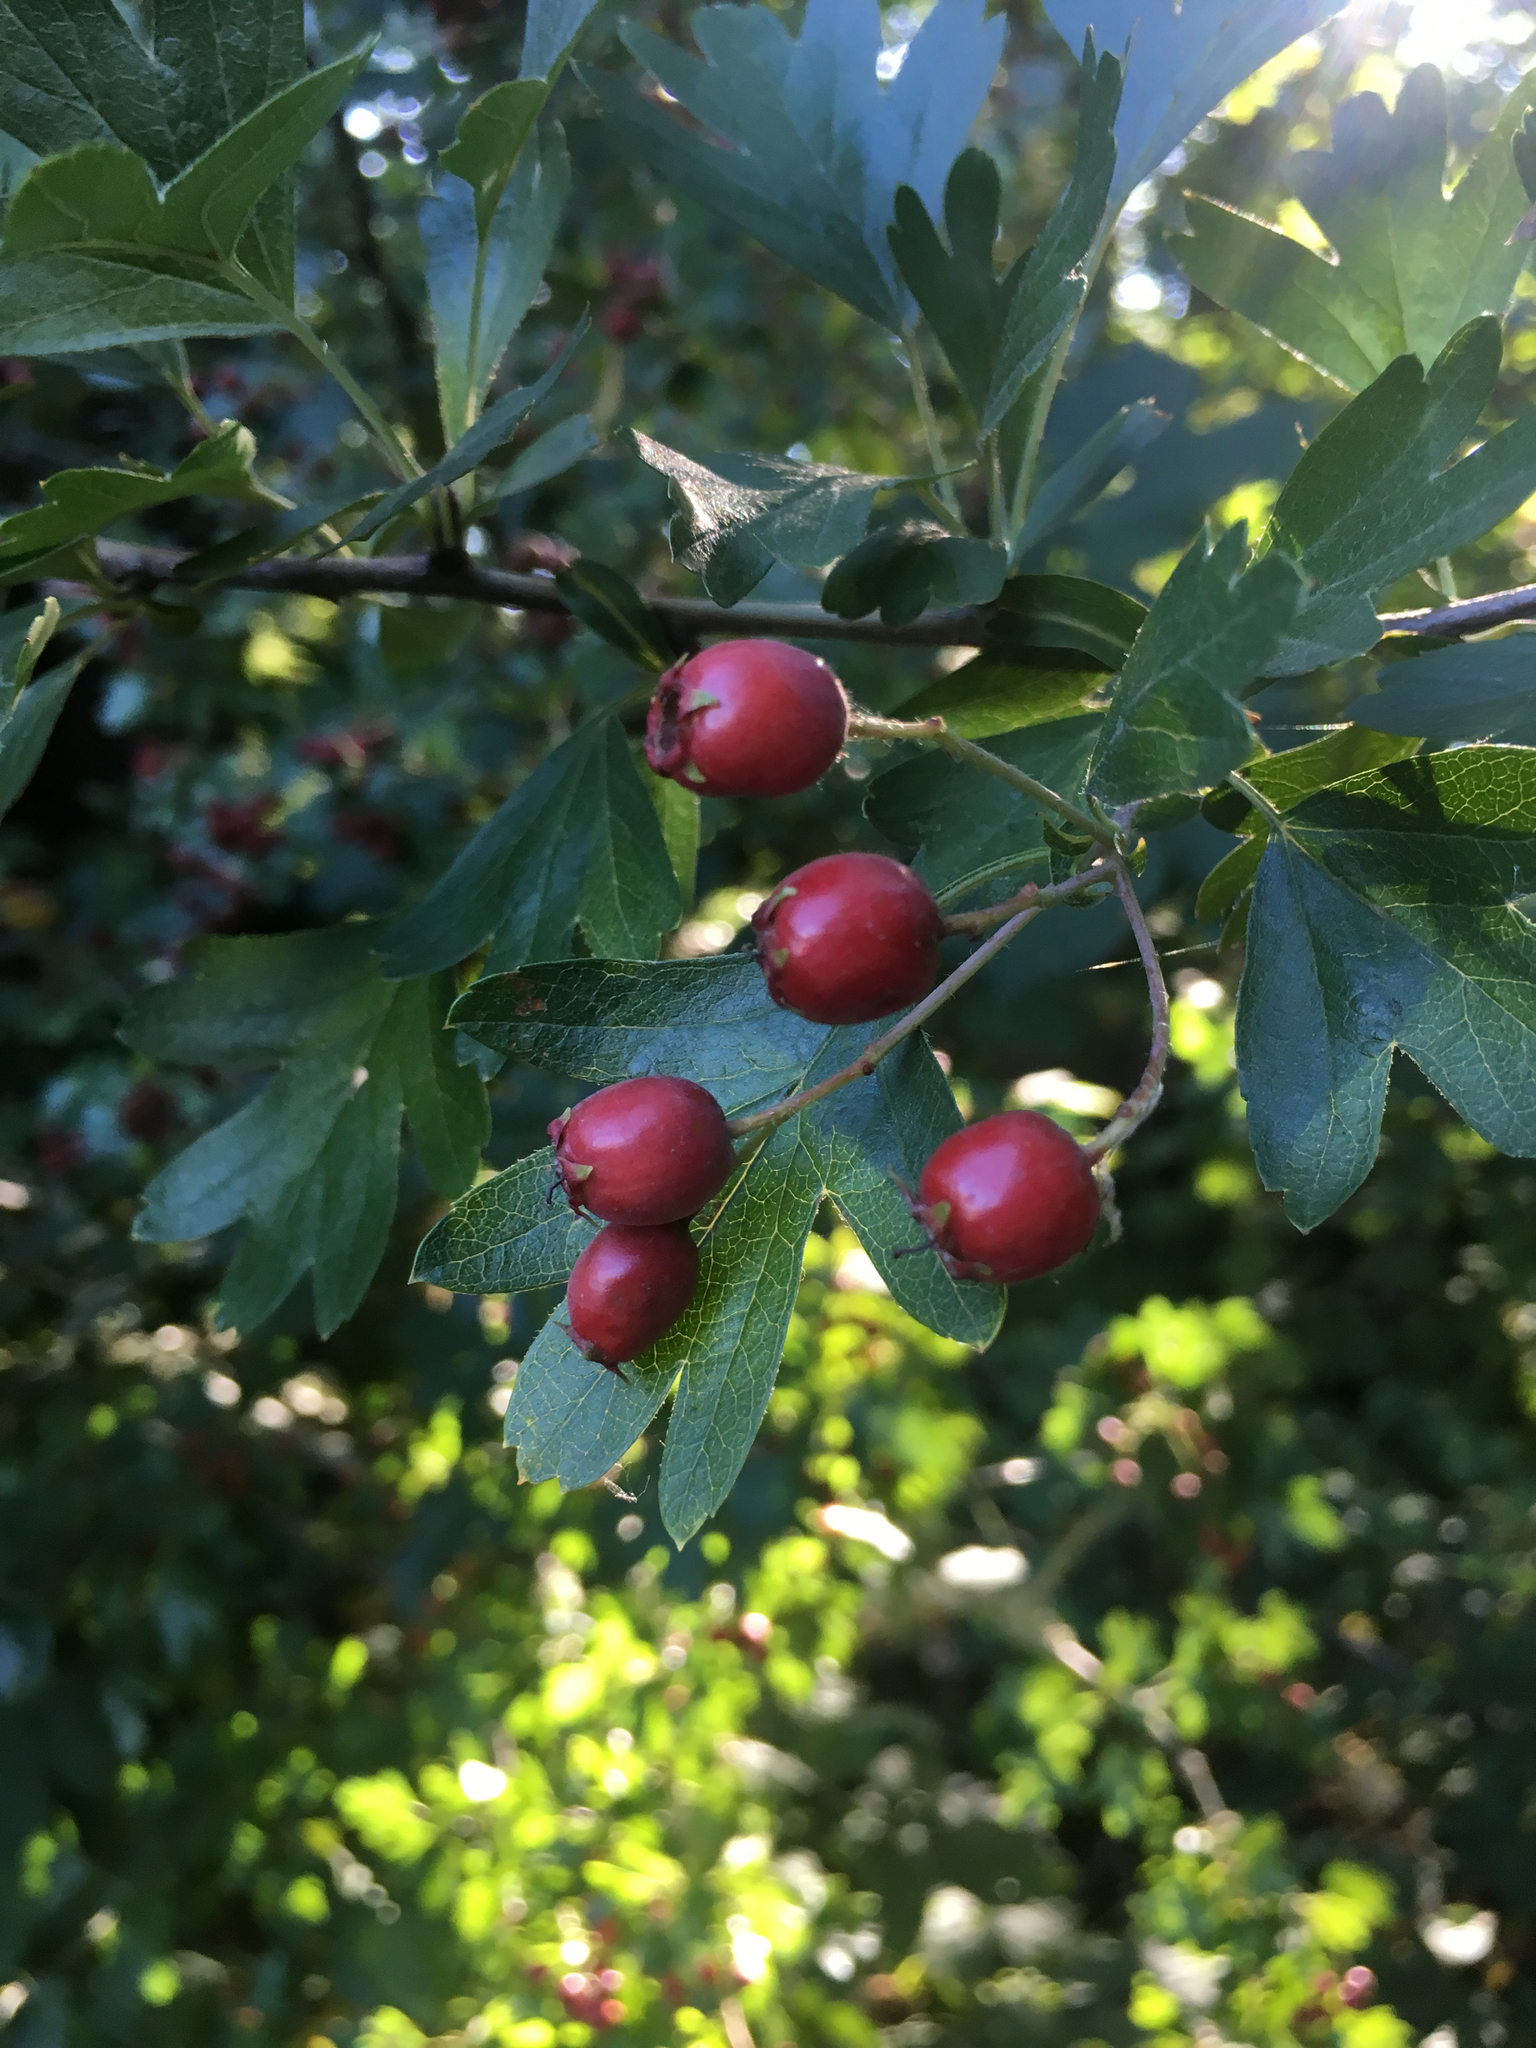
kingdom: Plantae
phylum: Tracheophyta
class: Magnoliopsida
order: Rosales
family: Rosaceae
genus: Crataegus
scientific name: Crataegus monogyna
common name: Hawthorn
